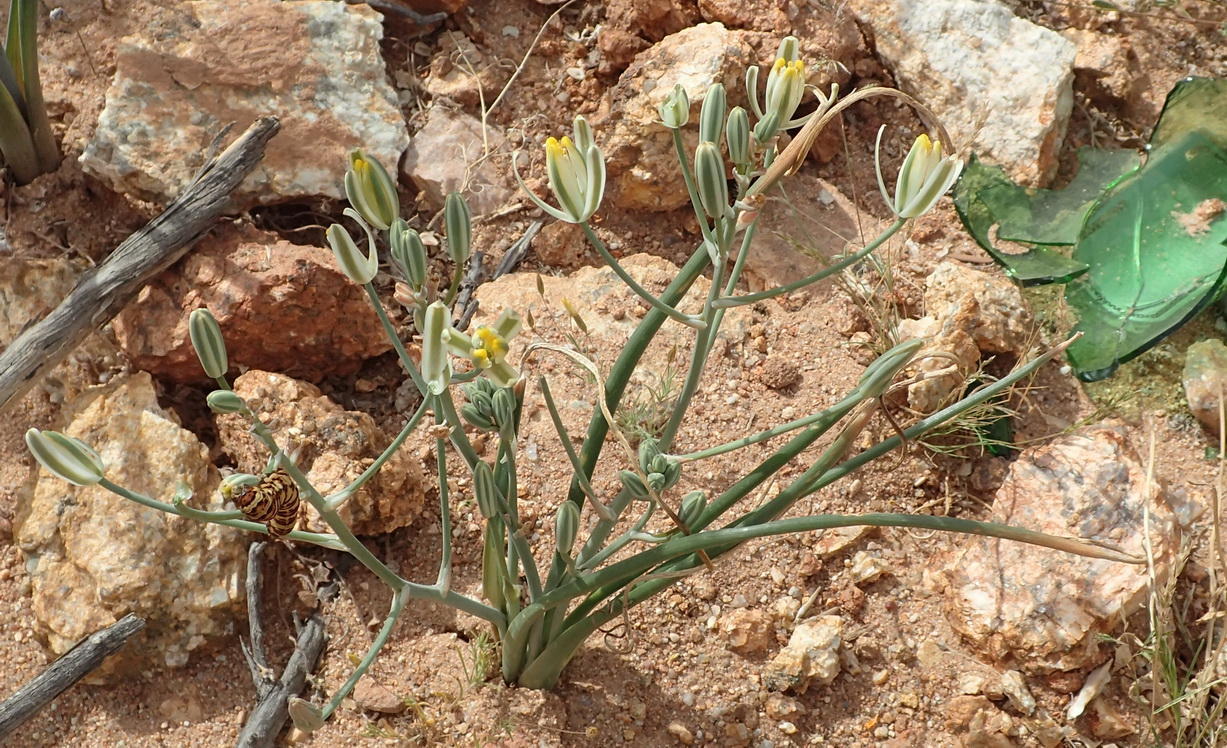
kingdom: Plantae
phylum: Tracheophyta
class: Liliopsida
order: Asparagales
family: Asparagaceae
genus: Albuca
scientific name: Albuca longipes
